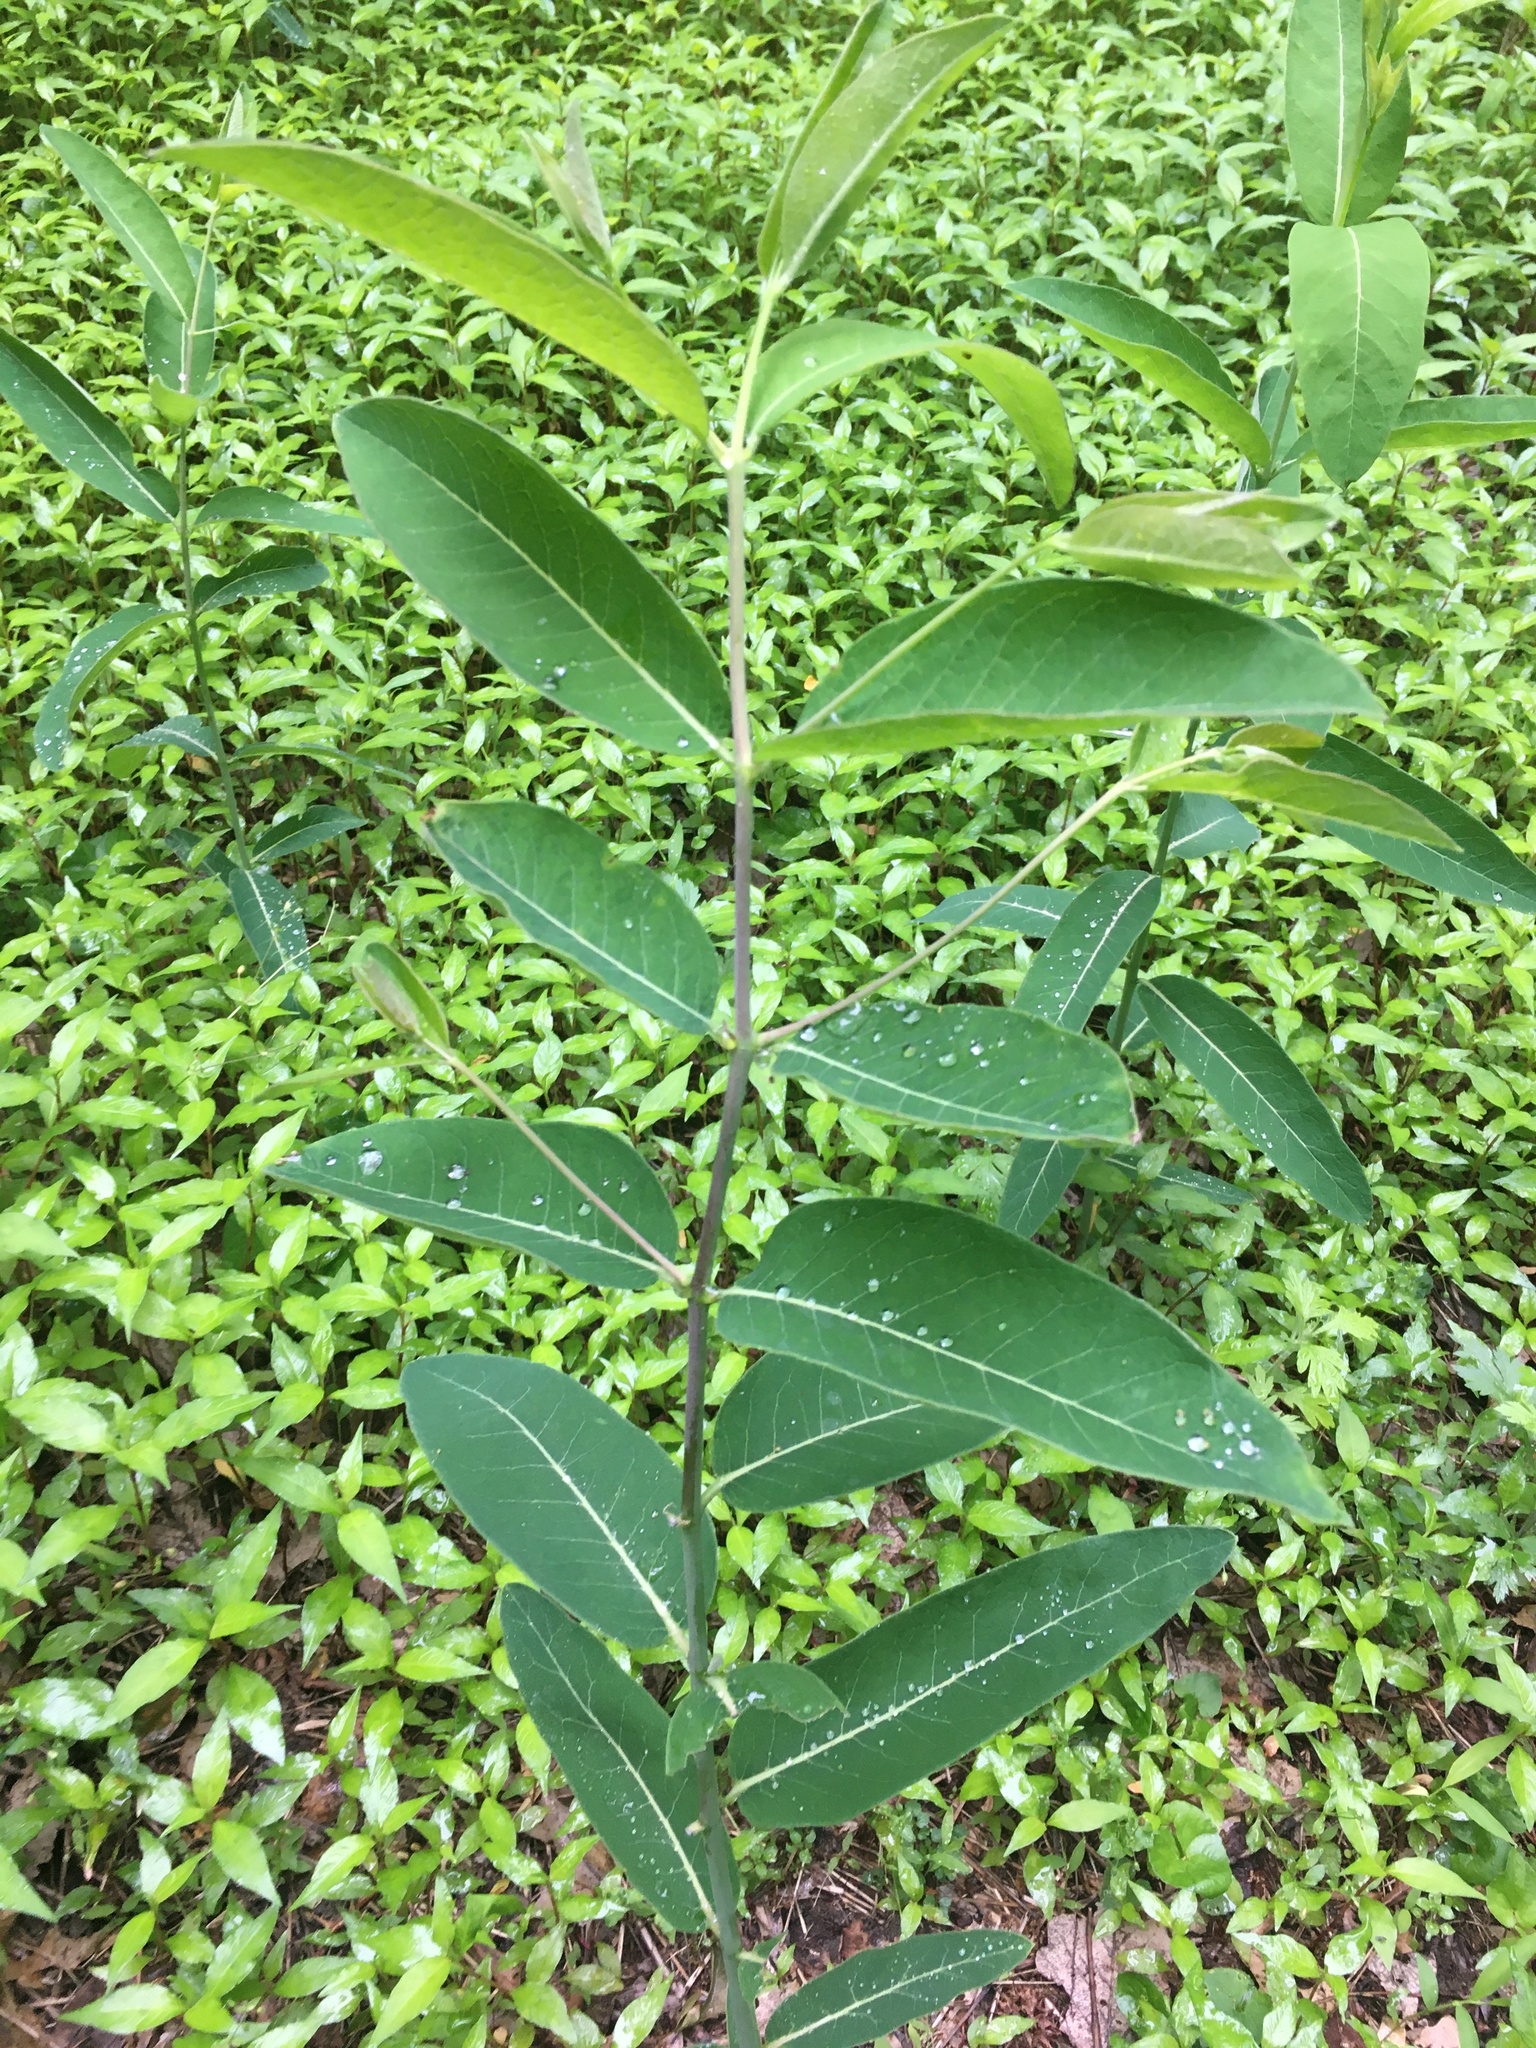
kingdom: Plantae
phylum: Tracheophyta
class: Magnoliopsida
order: Gentianales
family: Apocynaceae
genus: Apocynum
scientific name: Apocynum cannabinum
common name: Hemp dogbane
